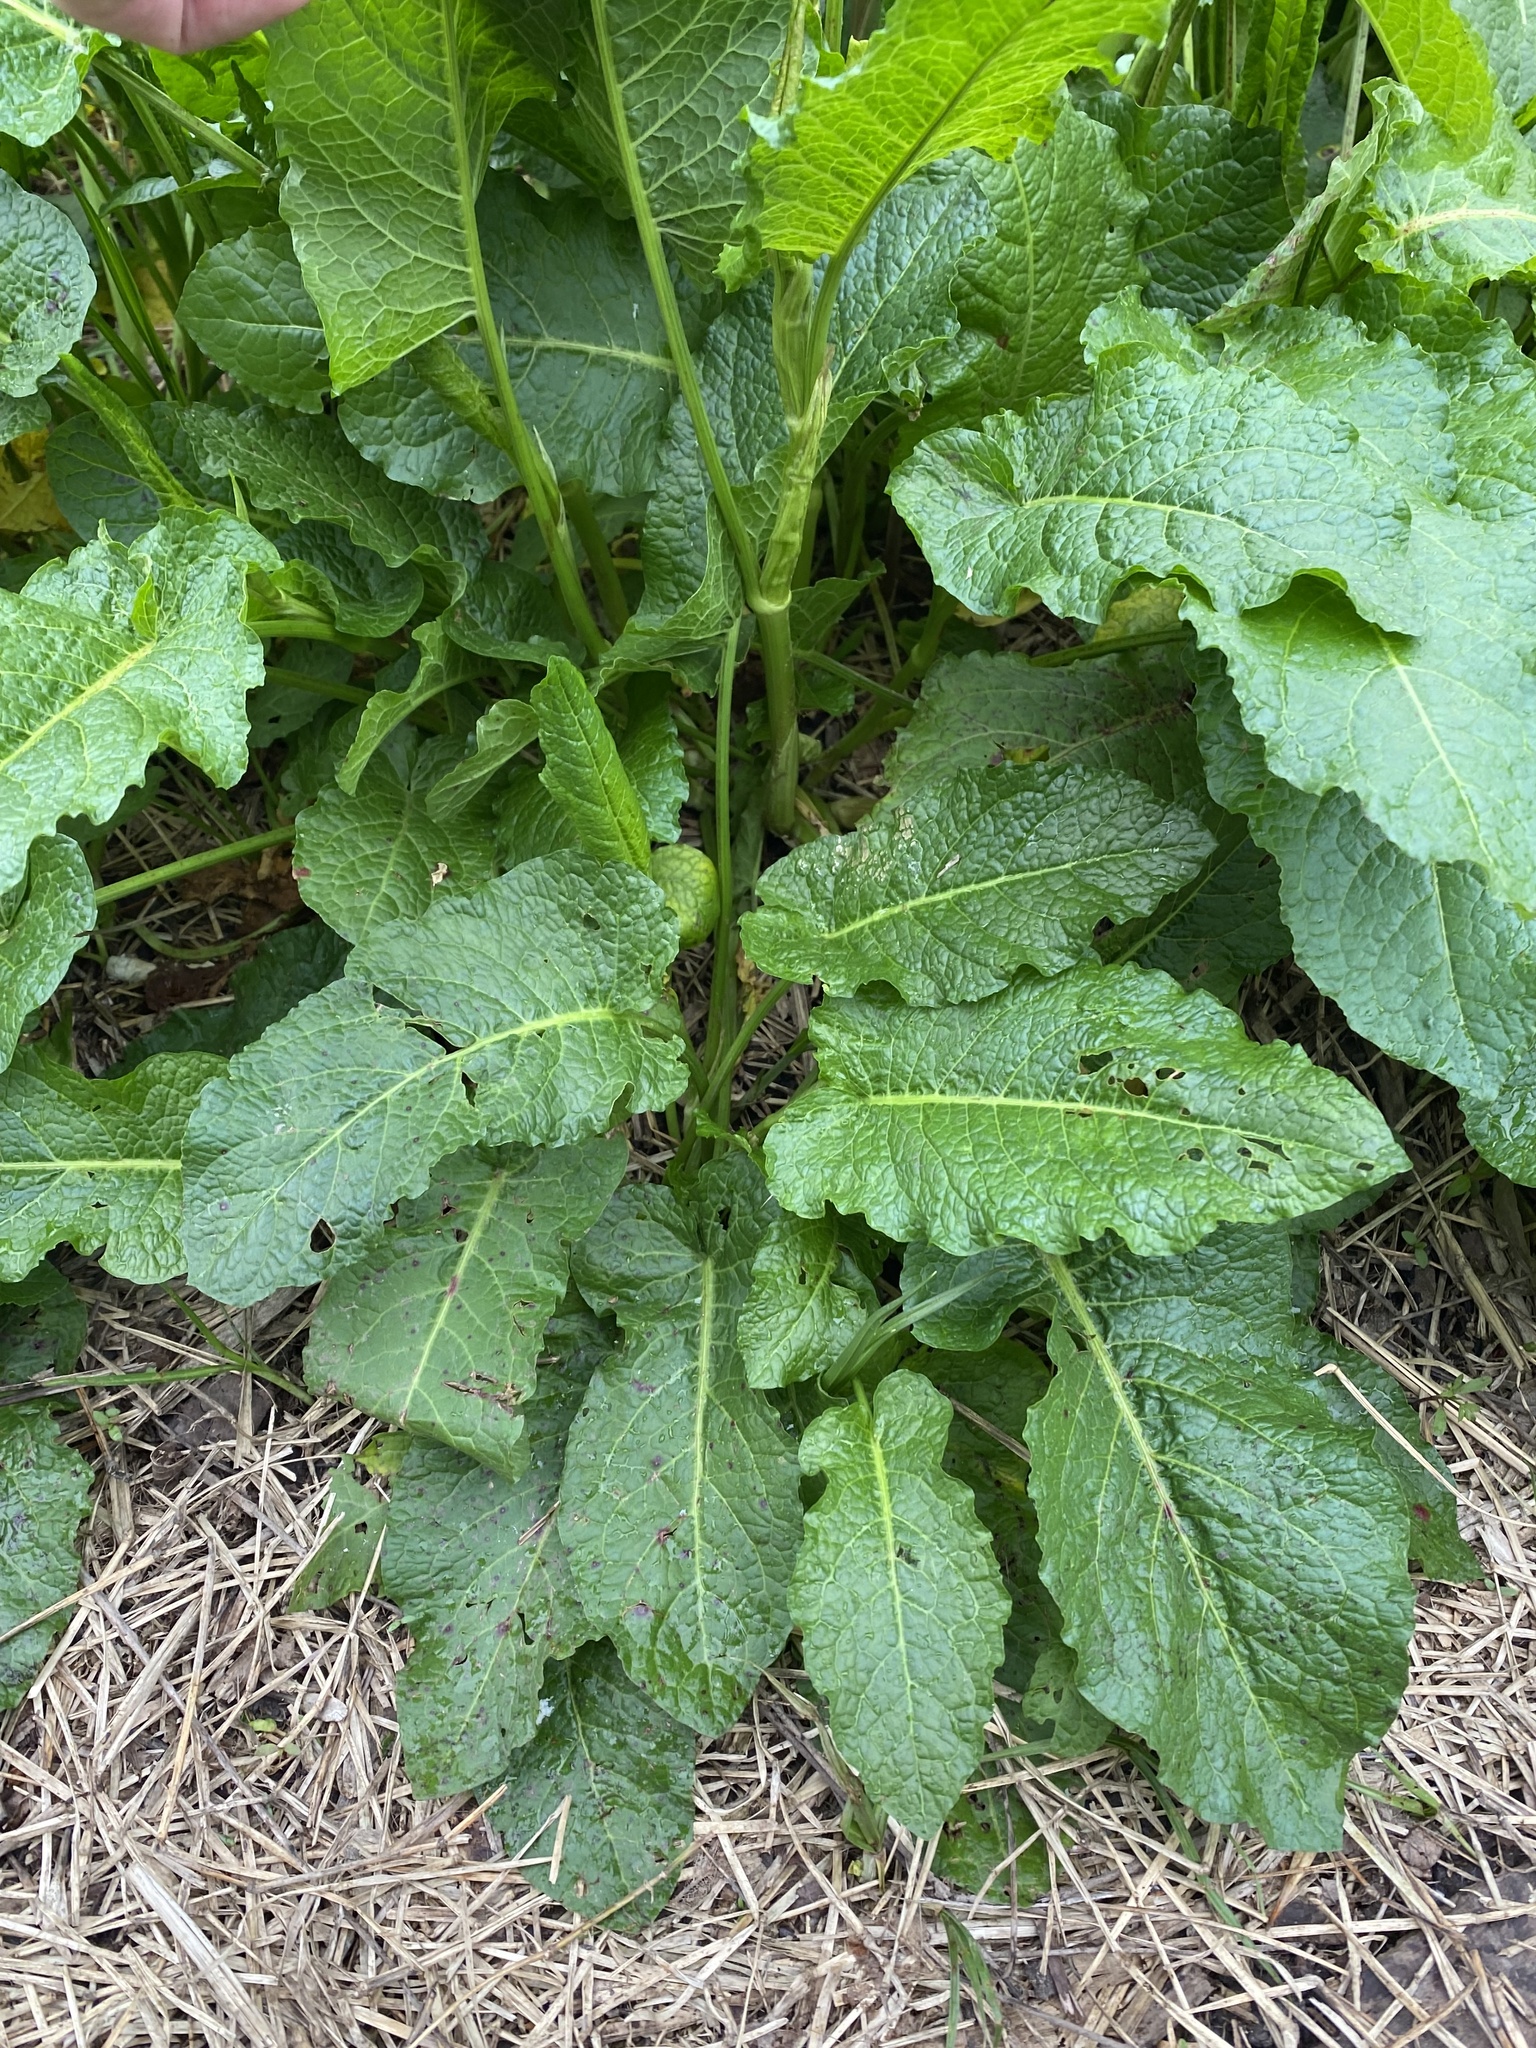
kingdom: Plantae
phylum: Tracheophyta
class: Magnoliopsida
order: Caryophyllales
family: Polygonaceae
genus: Rumex
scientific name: Rumex obtusifolius
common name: Bitter dock
